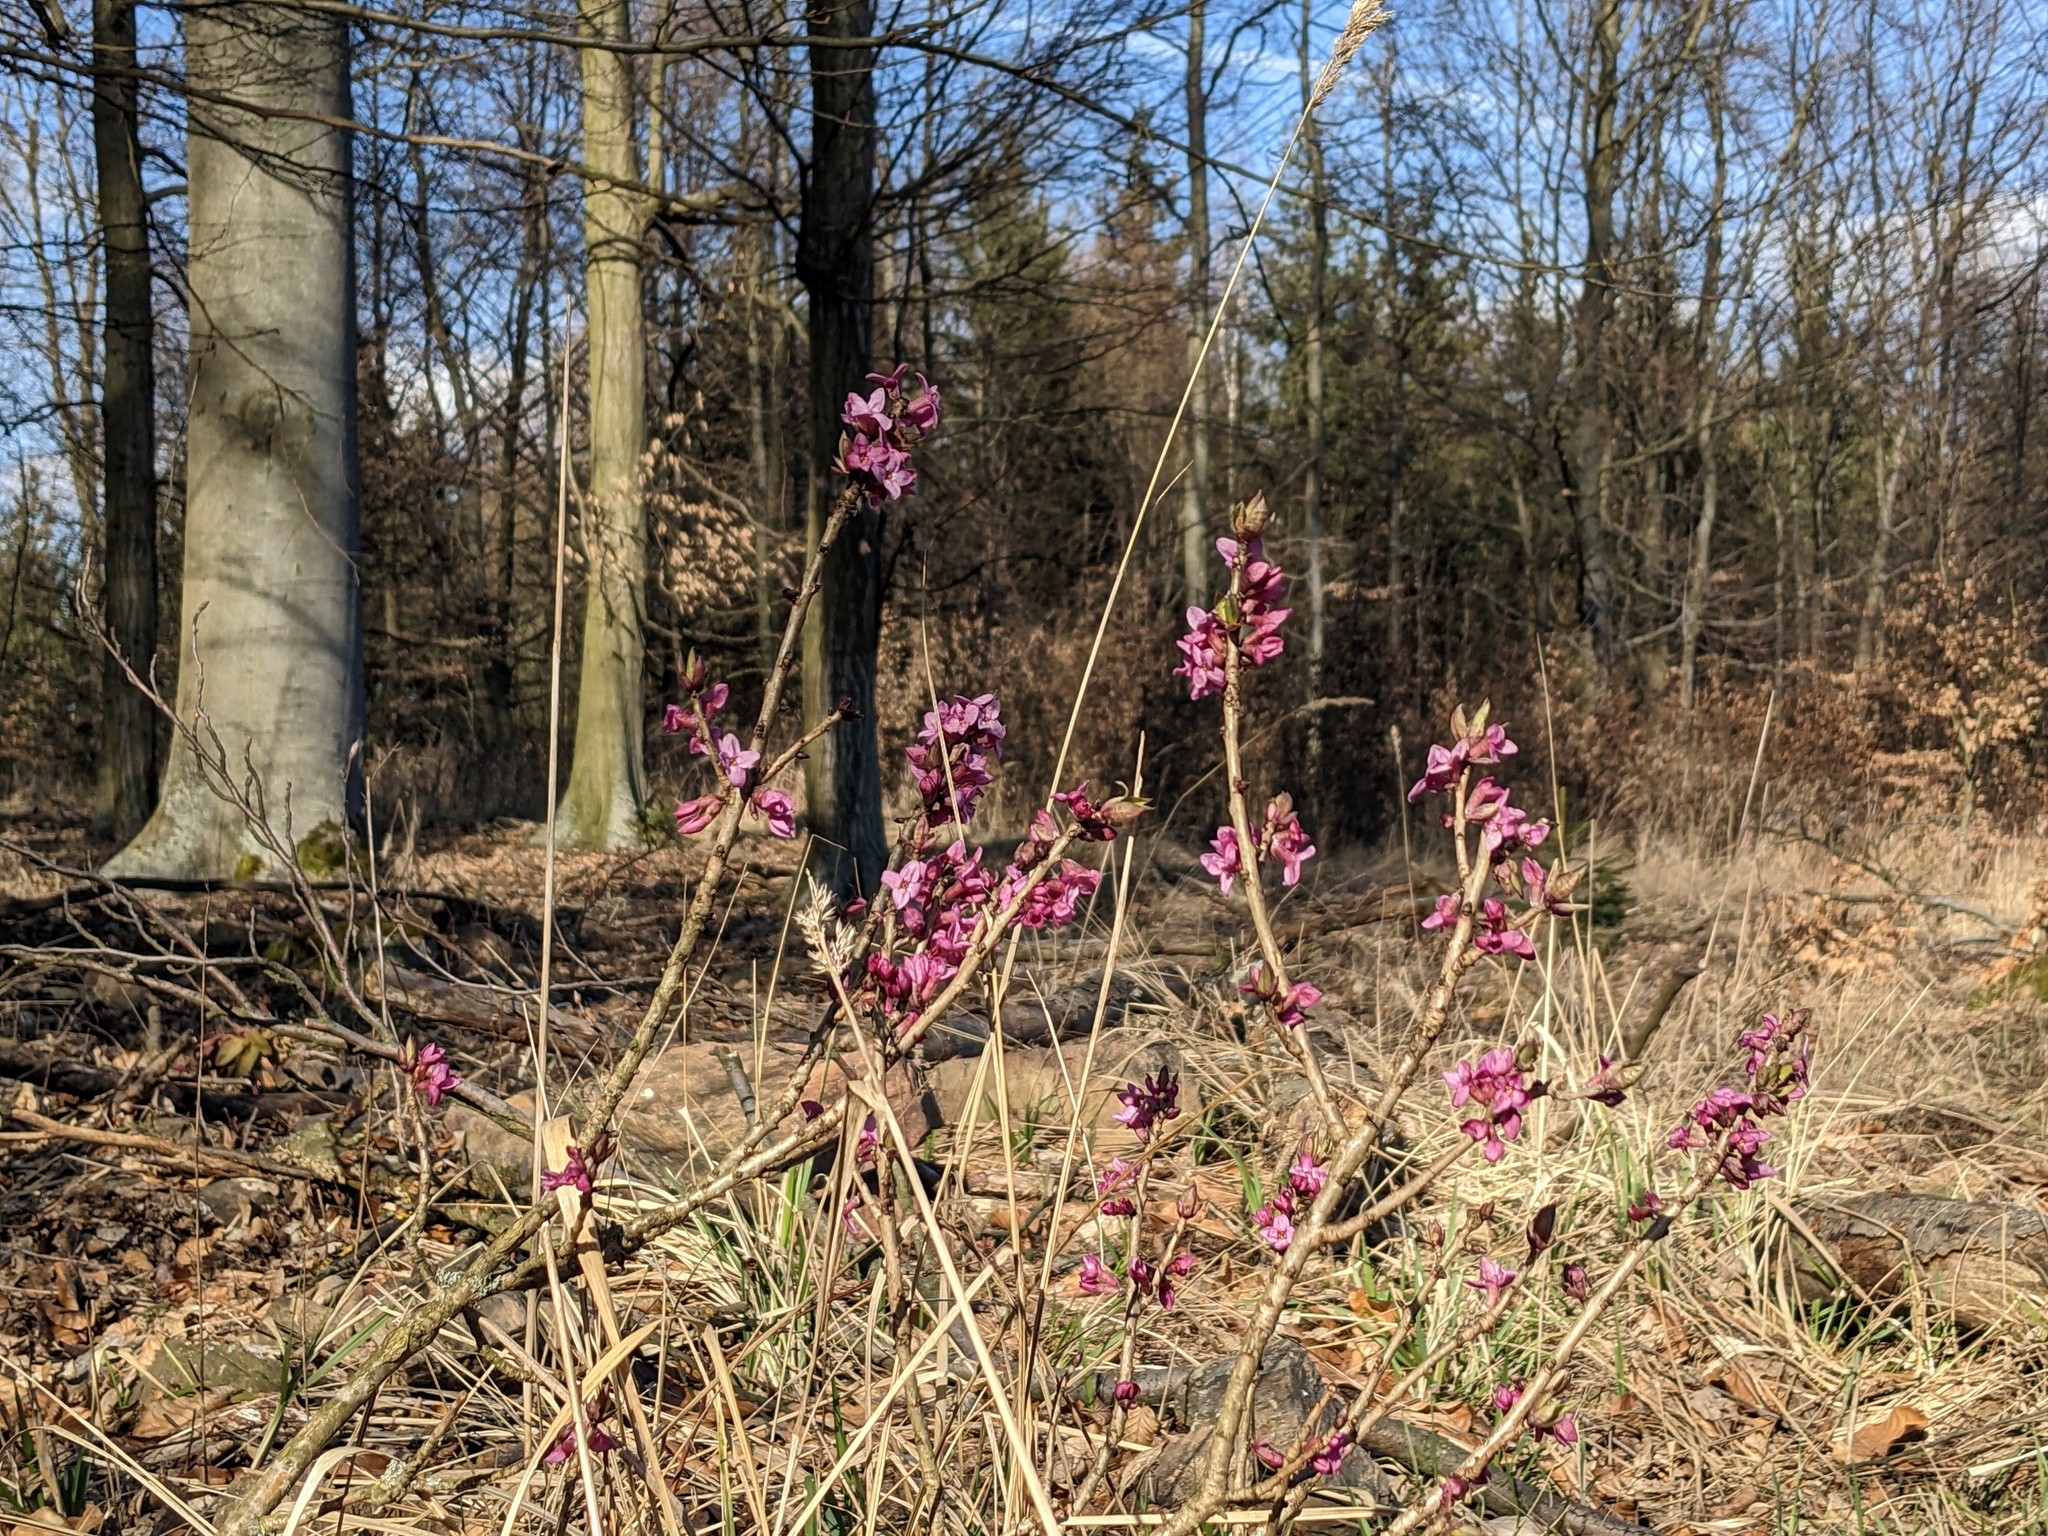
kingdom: Plantae
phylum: Tracheophyta
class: Magnoliopsida
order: Malvales
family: Thymelaeaceae
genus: Daphne
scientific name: Daphne mezereum
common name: Mezereon
